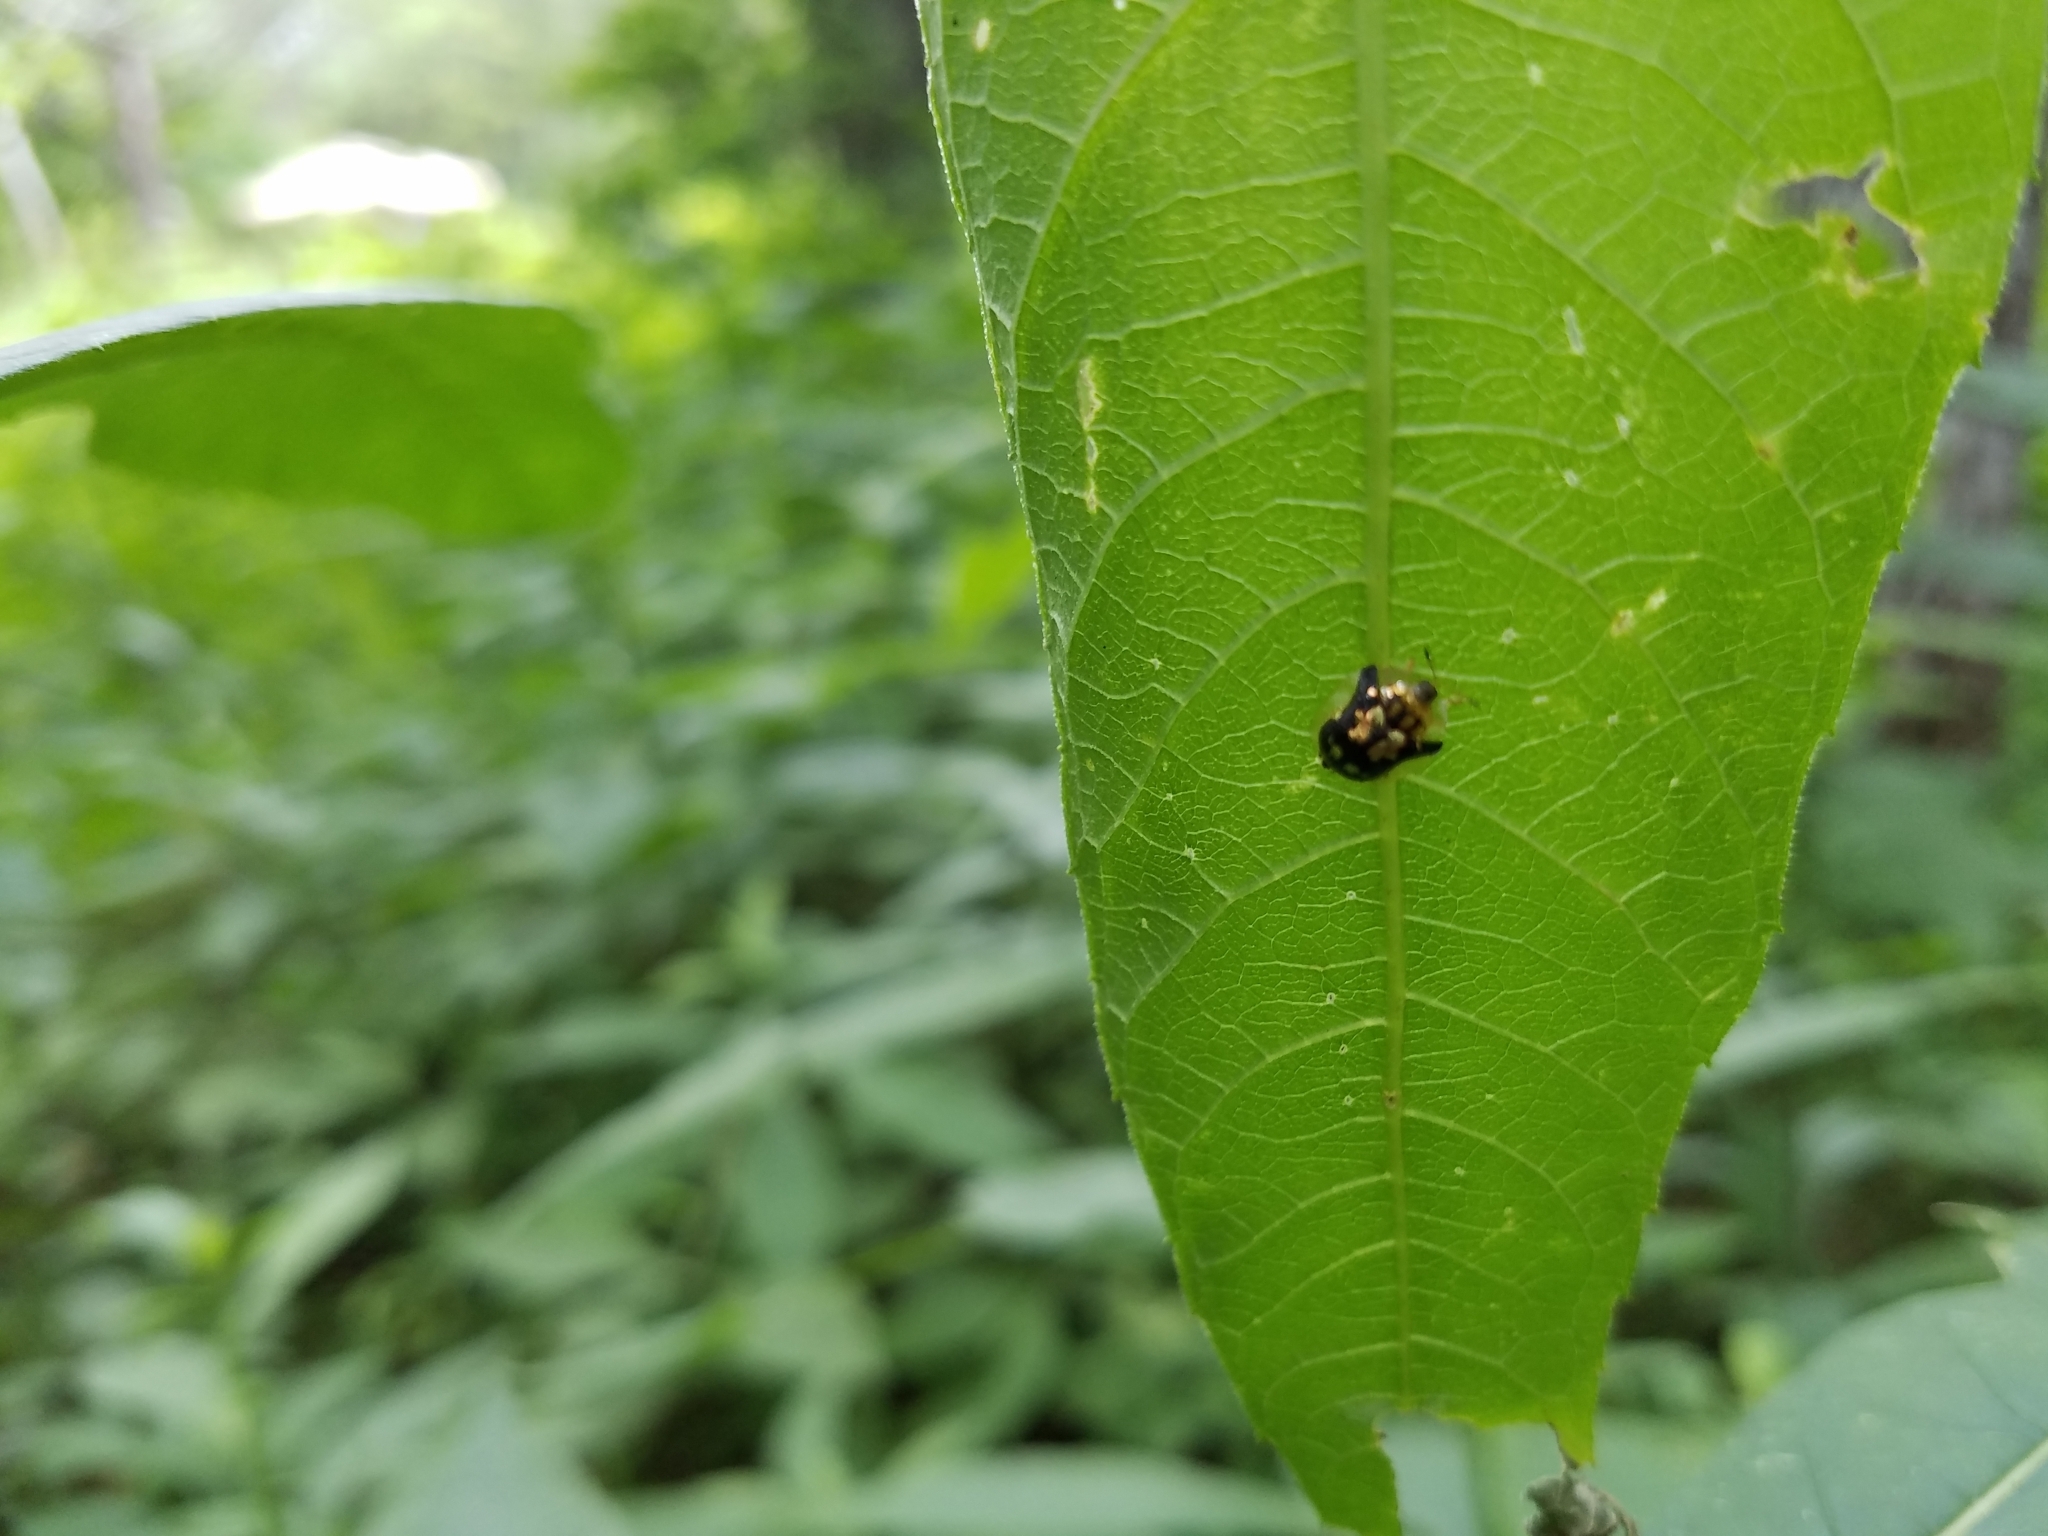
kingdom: Animalia
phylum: Arthropoda
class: Insecta
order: Coleoptera
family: Chrysomelidae
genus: Deloyala
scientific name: Deloyala guttata
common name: Mottled tortoise beetle
